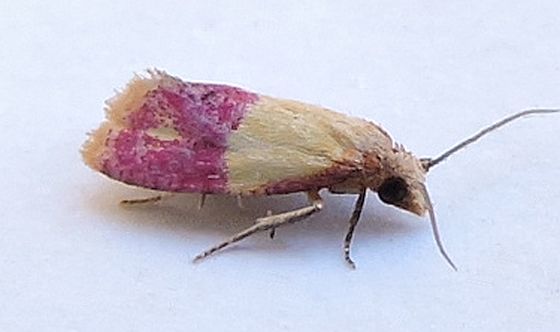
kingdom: Animalia
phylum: Arthropoda
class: Insecta
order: Lepidoptera
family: Tortricidae
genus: Conchylis
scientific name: Conchylis oenotherana
